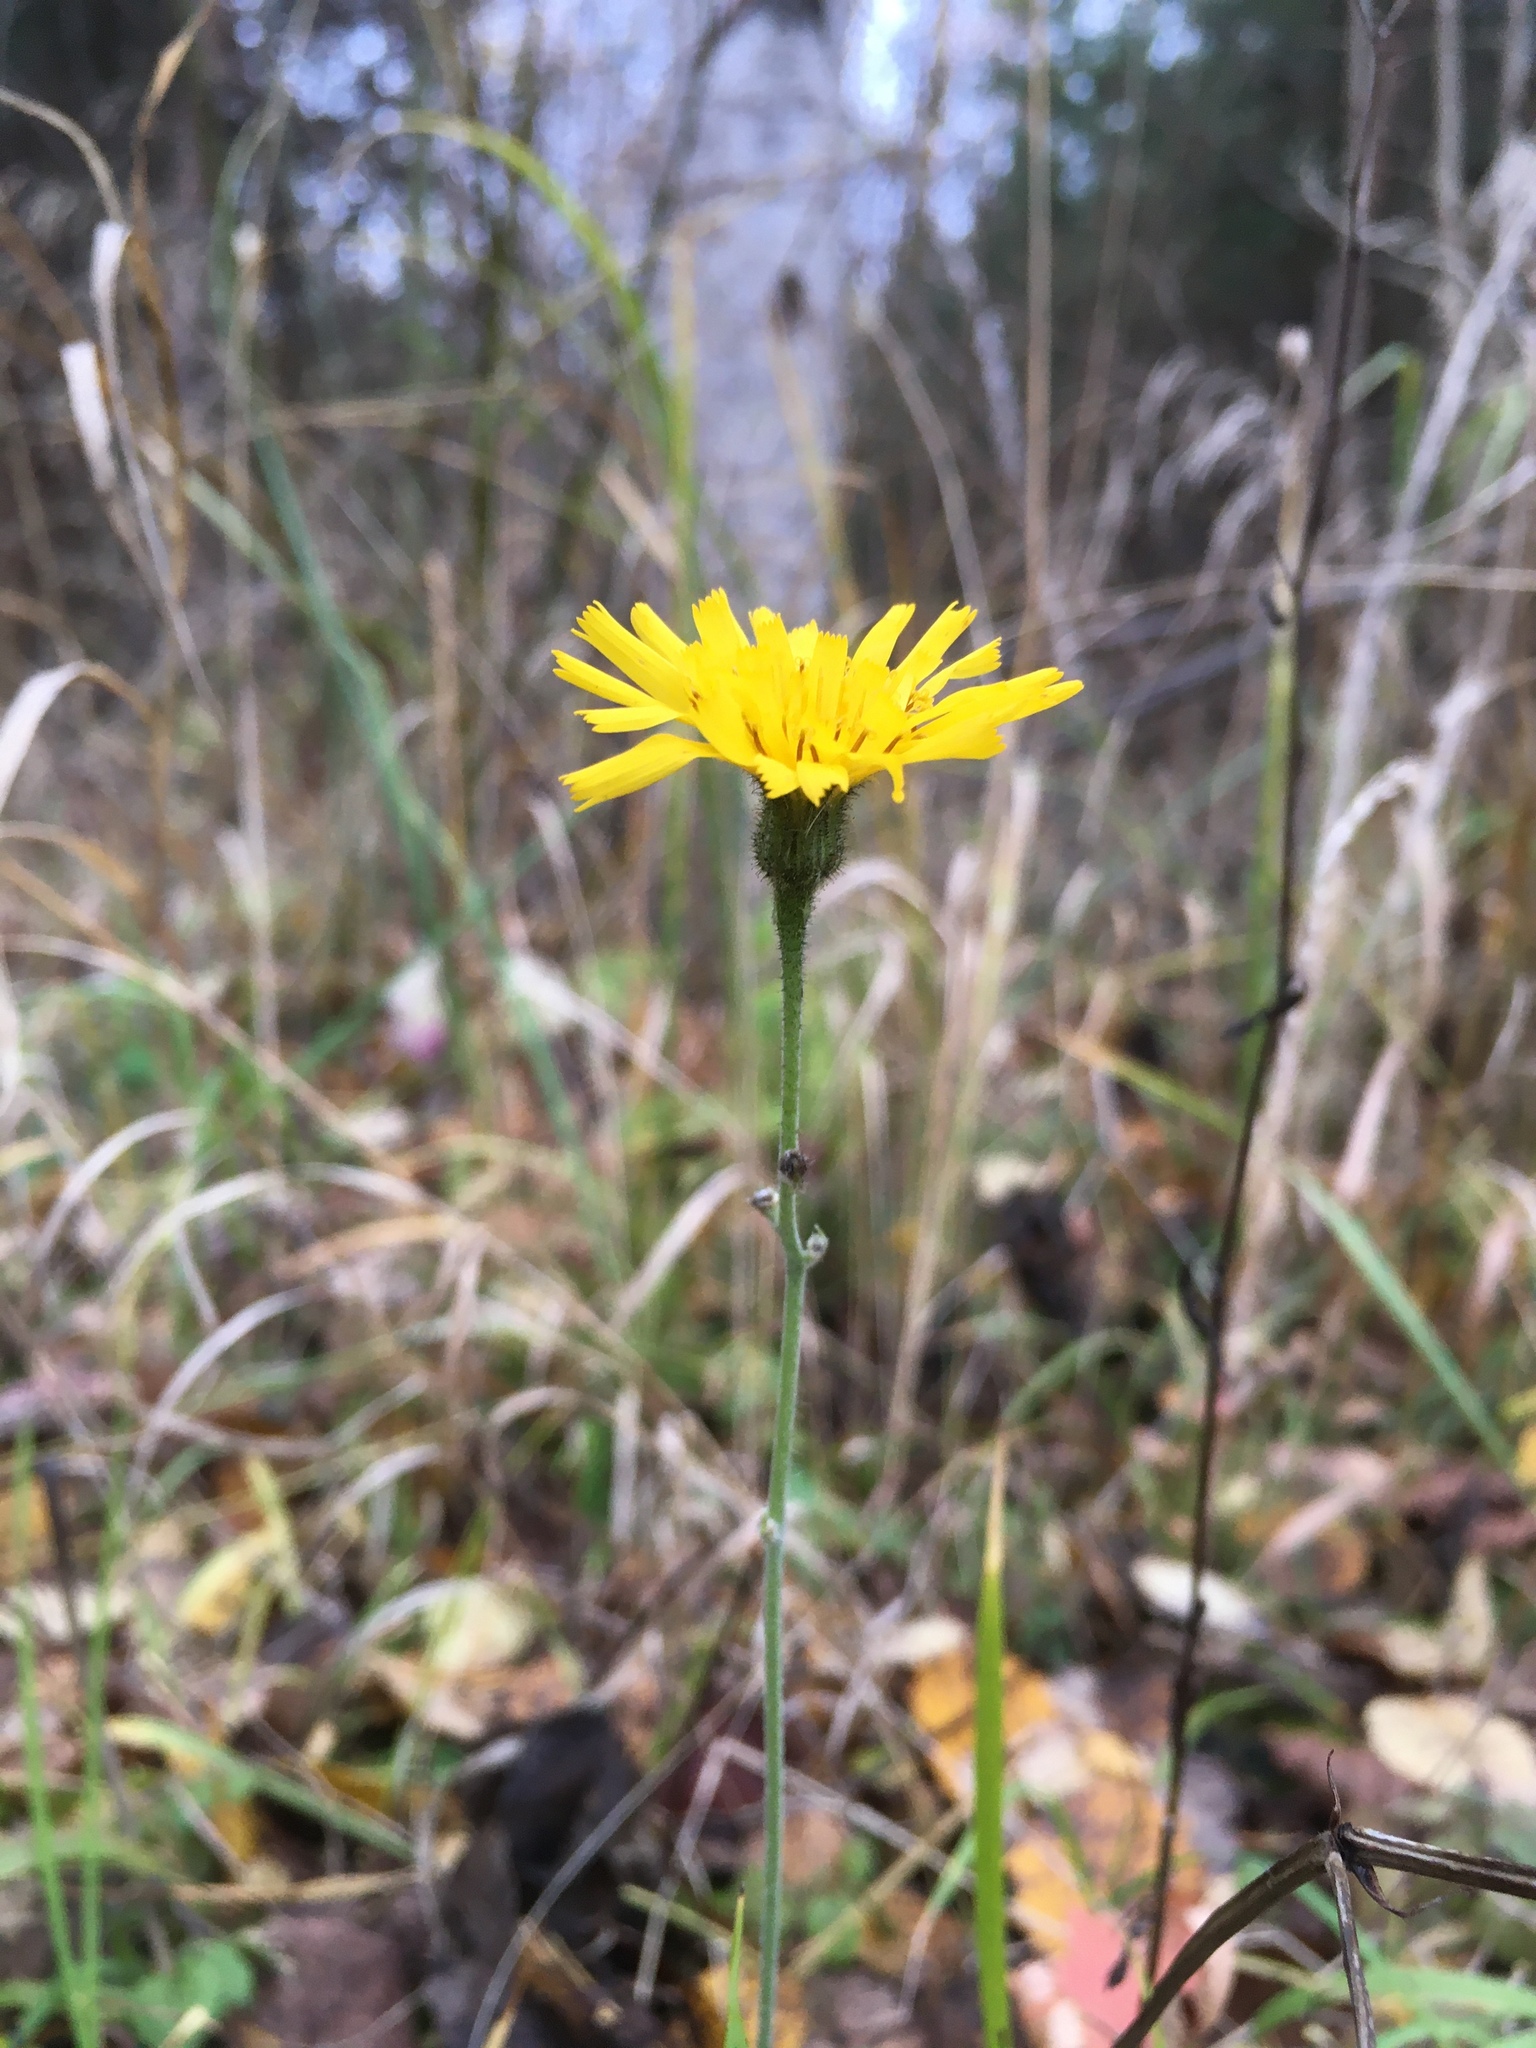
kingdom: Plantae
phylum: Tracheophyta
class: Magnoliopsida
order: Asterales
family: Asteraceae
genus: Pilosella
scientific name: Pilosella officinarum
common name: Mouse-ear hawkweed
